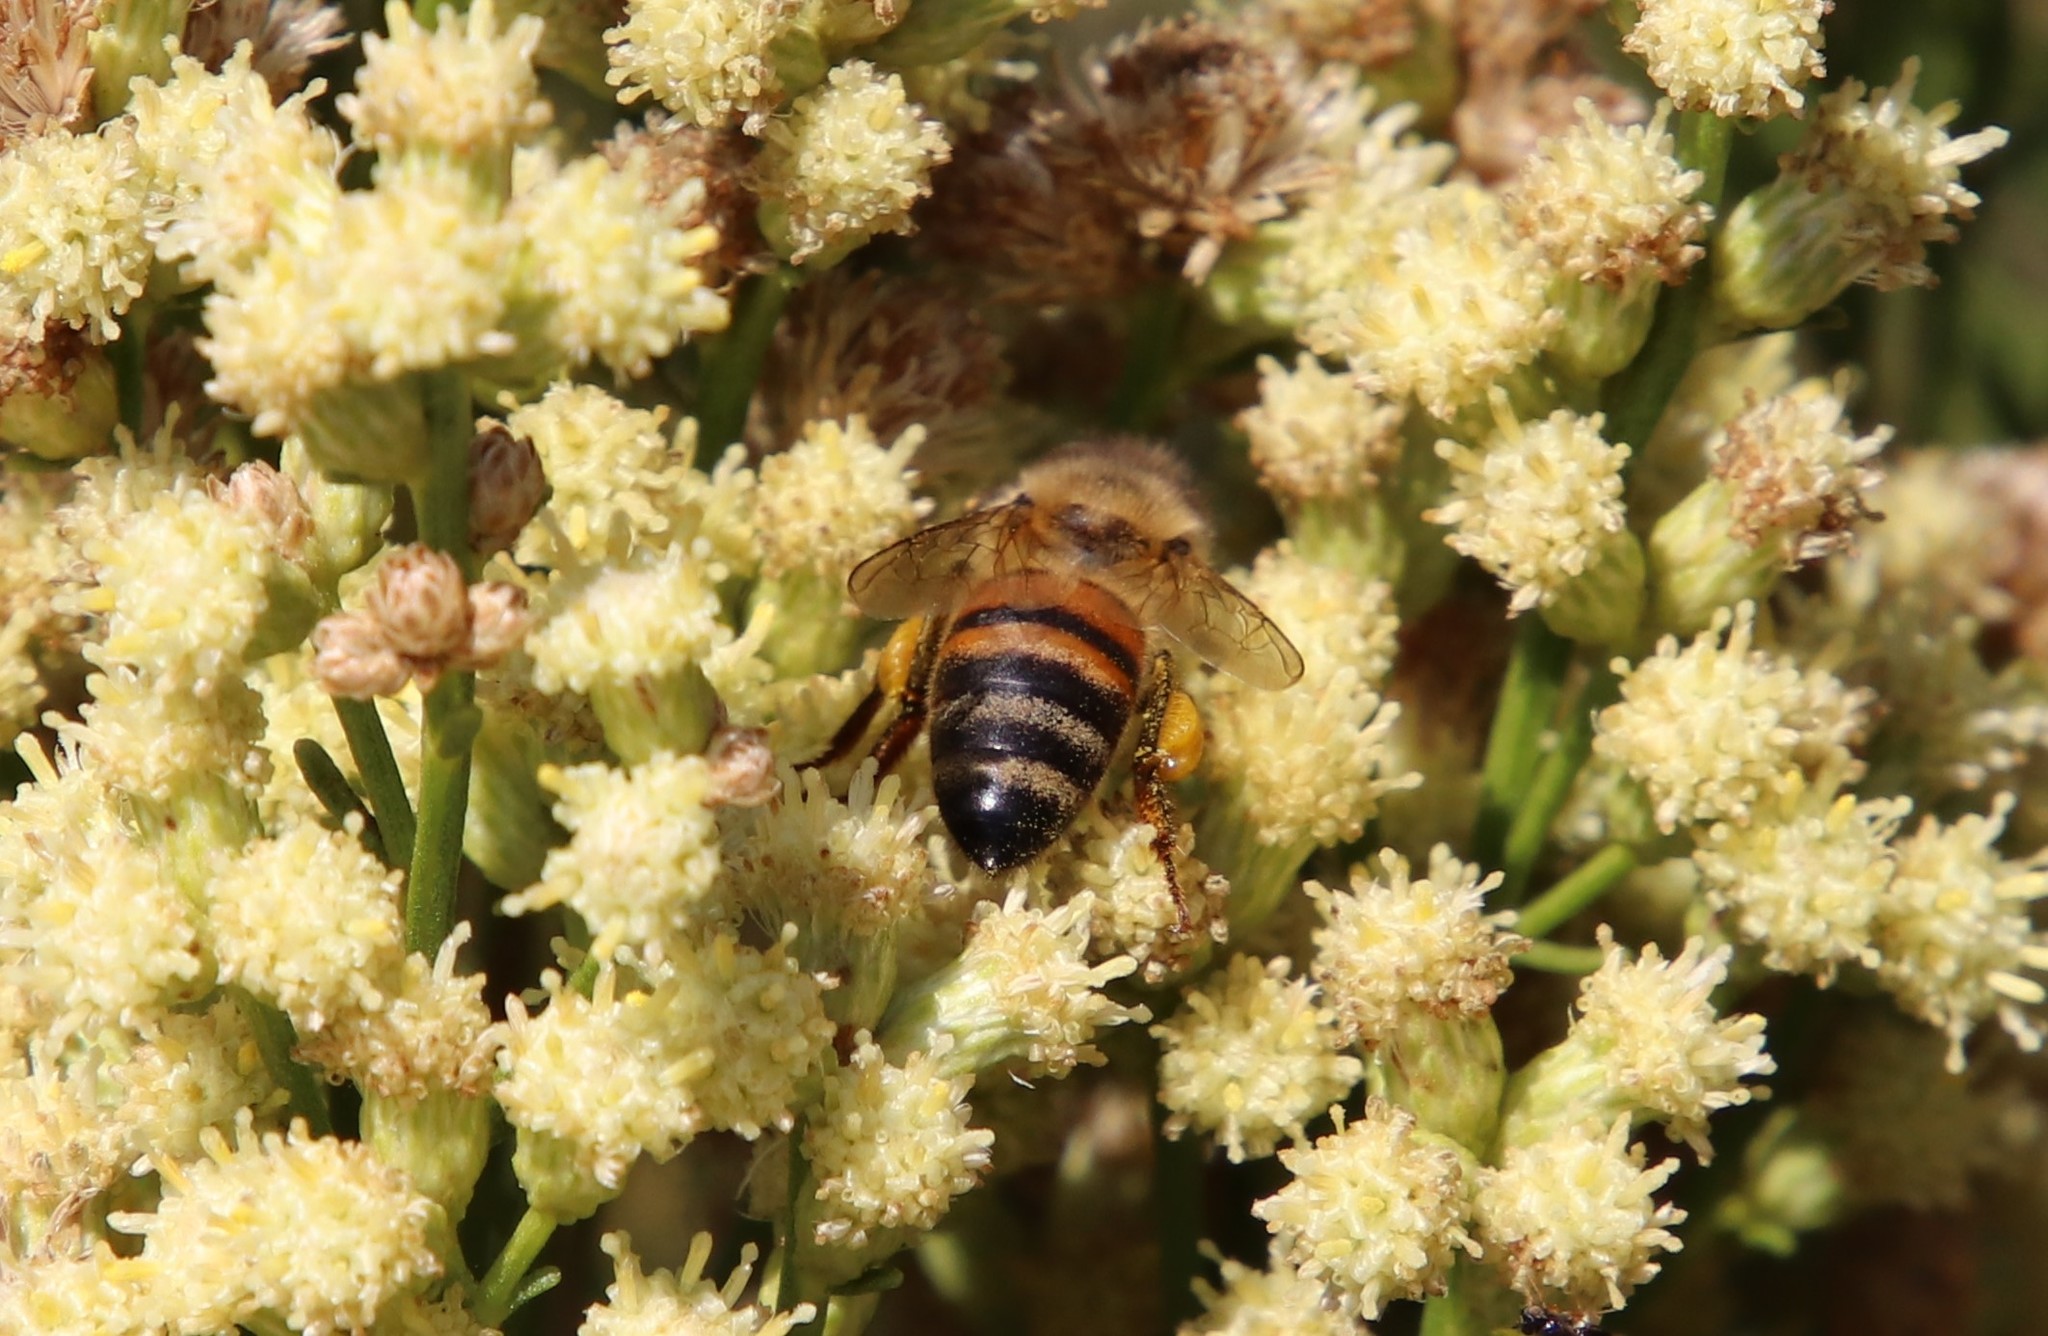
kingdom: Animalia
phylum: Arthropoda
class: Insecta
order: Hymenoptera
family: Apidae
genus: Apis
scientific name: Apis mellifera
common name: Honey bee
